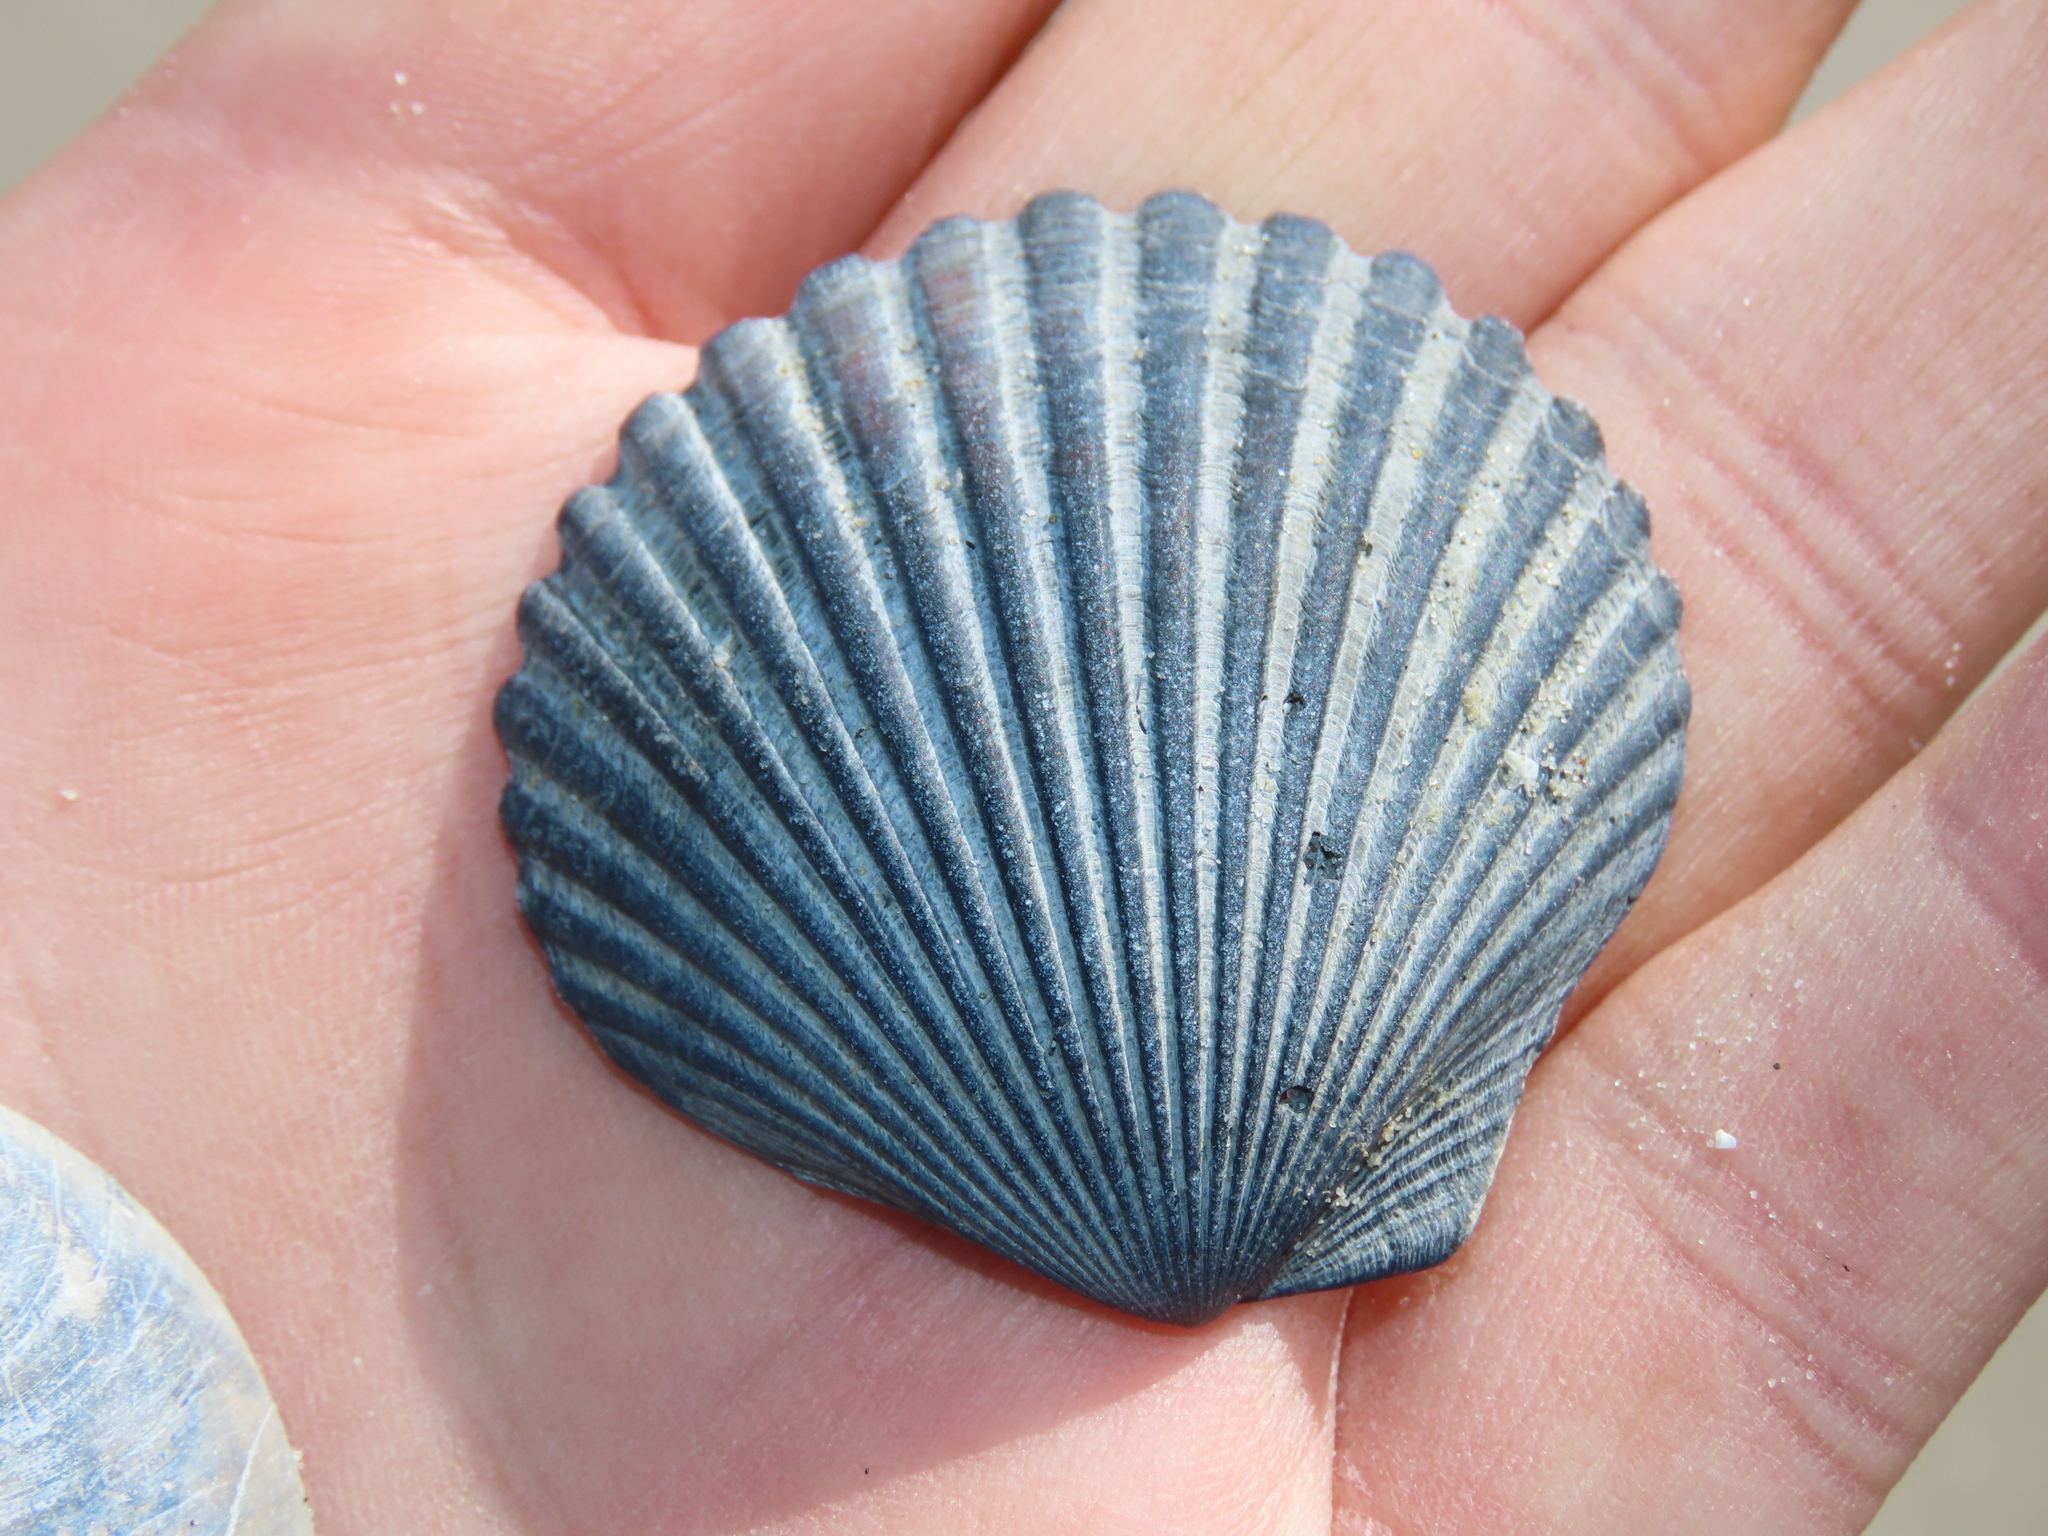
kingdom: Animalia
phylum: Mollusca
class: Bivalvia
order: Pectinida
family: Pectinidae
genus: Argopecten
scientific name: Argopecten irradians
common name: Atlantic bay scallop
